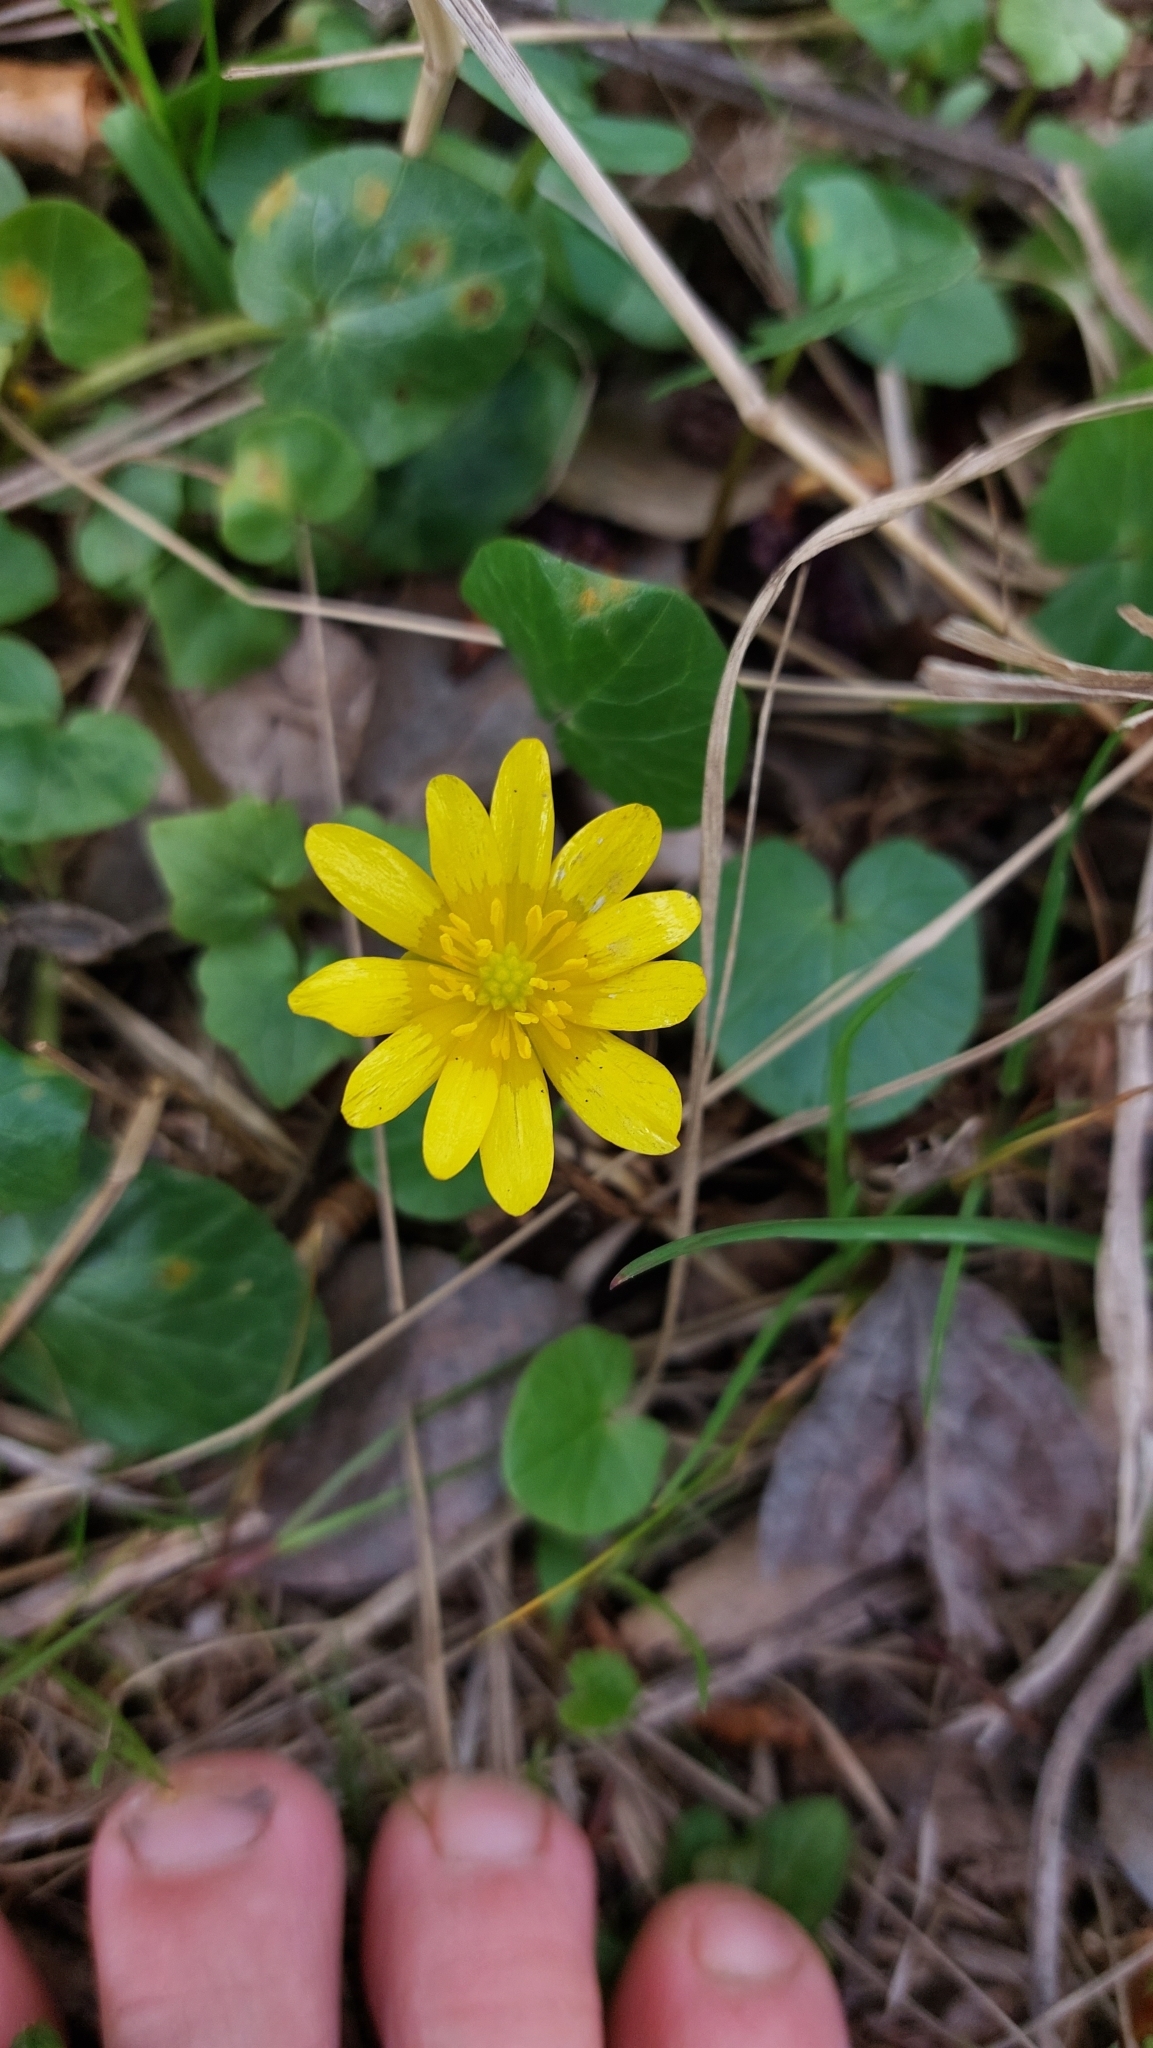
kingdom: Plantae
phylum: Tracheophyta
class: Magnoliopsida
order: Ranunculales
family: Ranunculaceae
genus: Ficaria
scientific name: Ficaria verna
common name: Lesser celandine
